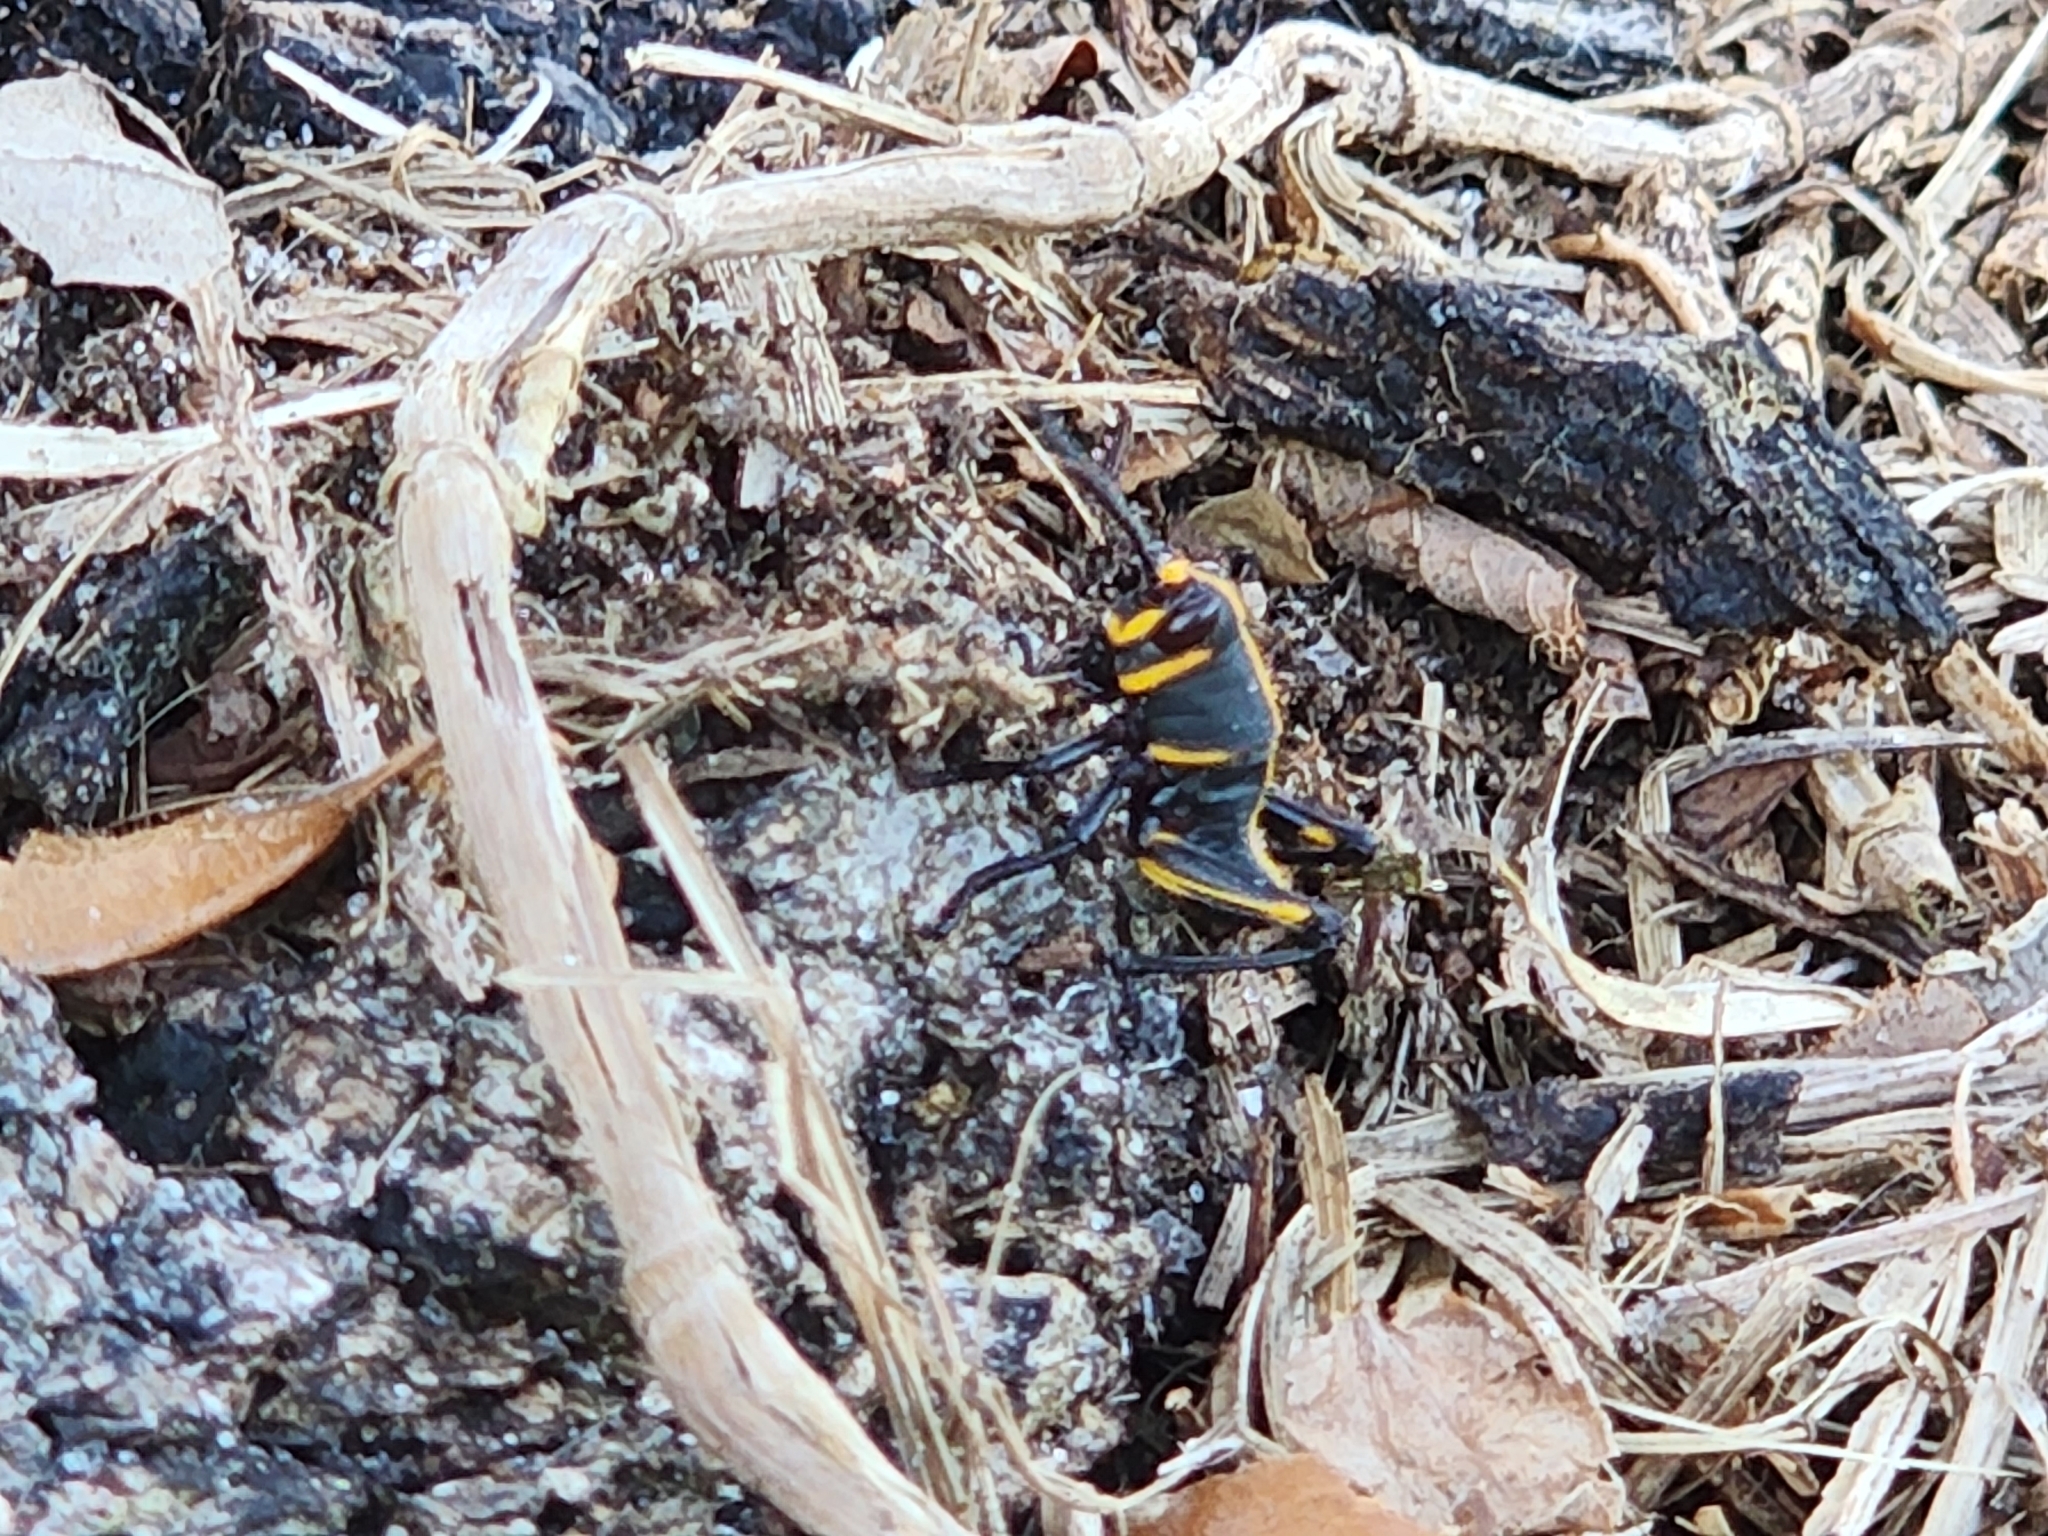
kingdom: Animalia
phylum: Arthropoda
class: Insecta
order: Orthoptera
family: Romaleidae
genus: Romalea
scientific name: Romalea microptera
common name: Eastern lubber grasshopper
